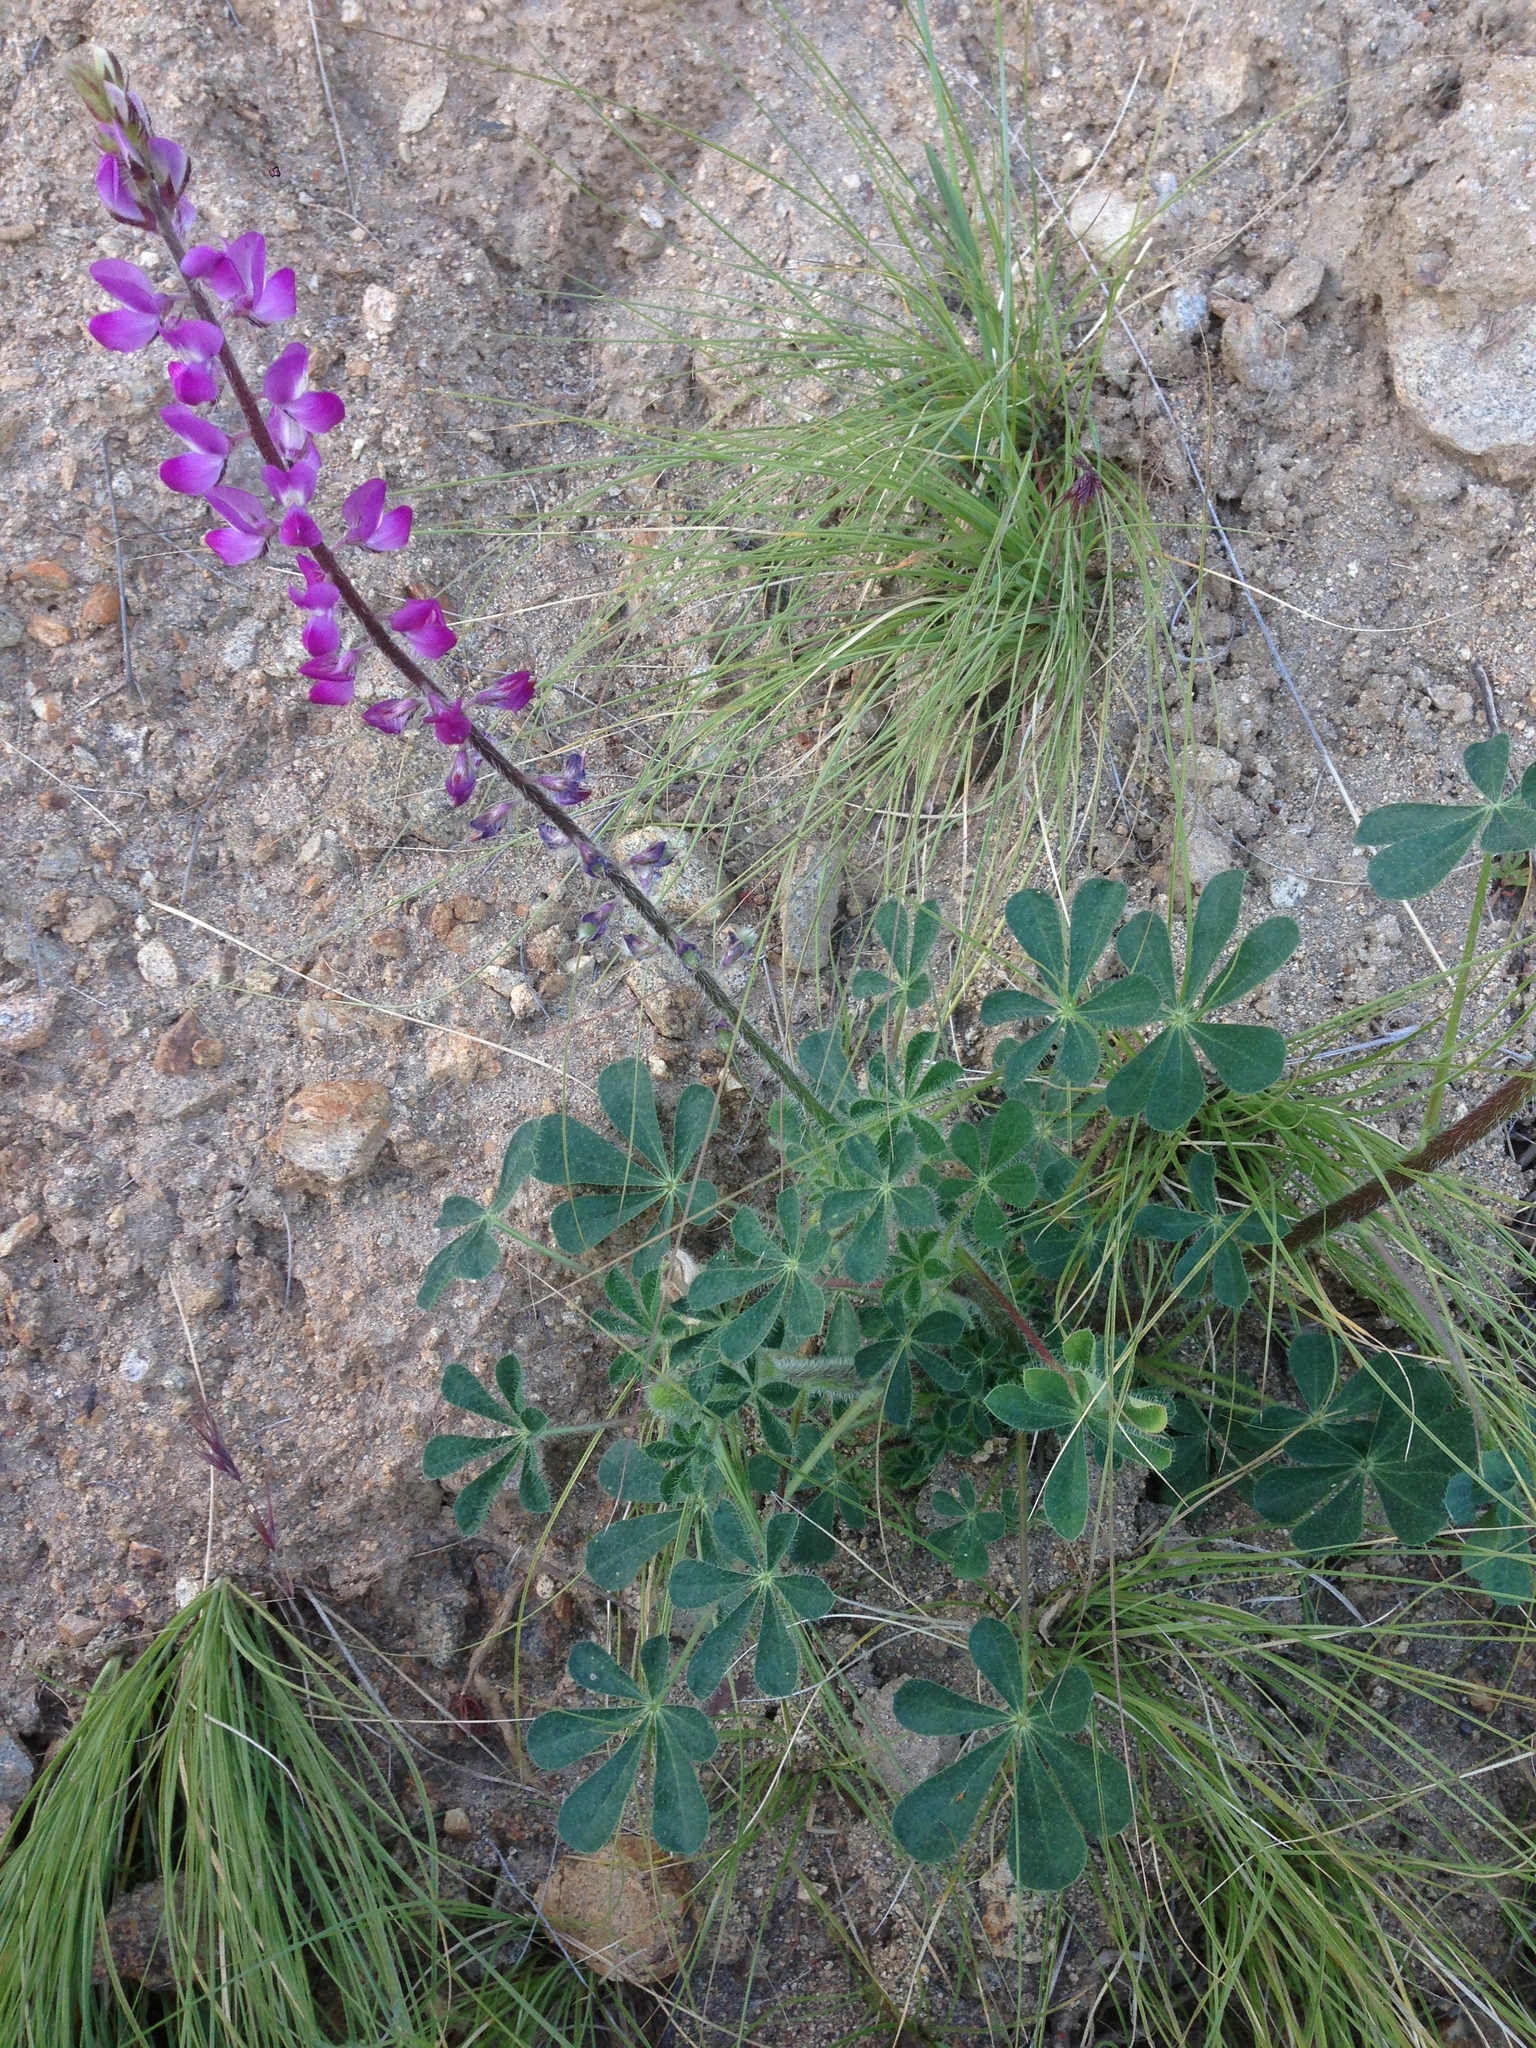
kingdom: Plantae
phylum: Tracheophyta
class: Magnoliopsida
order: Fabales
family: Fabaceae
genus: Lupinus
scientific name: Lupinus hirsutissimus
